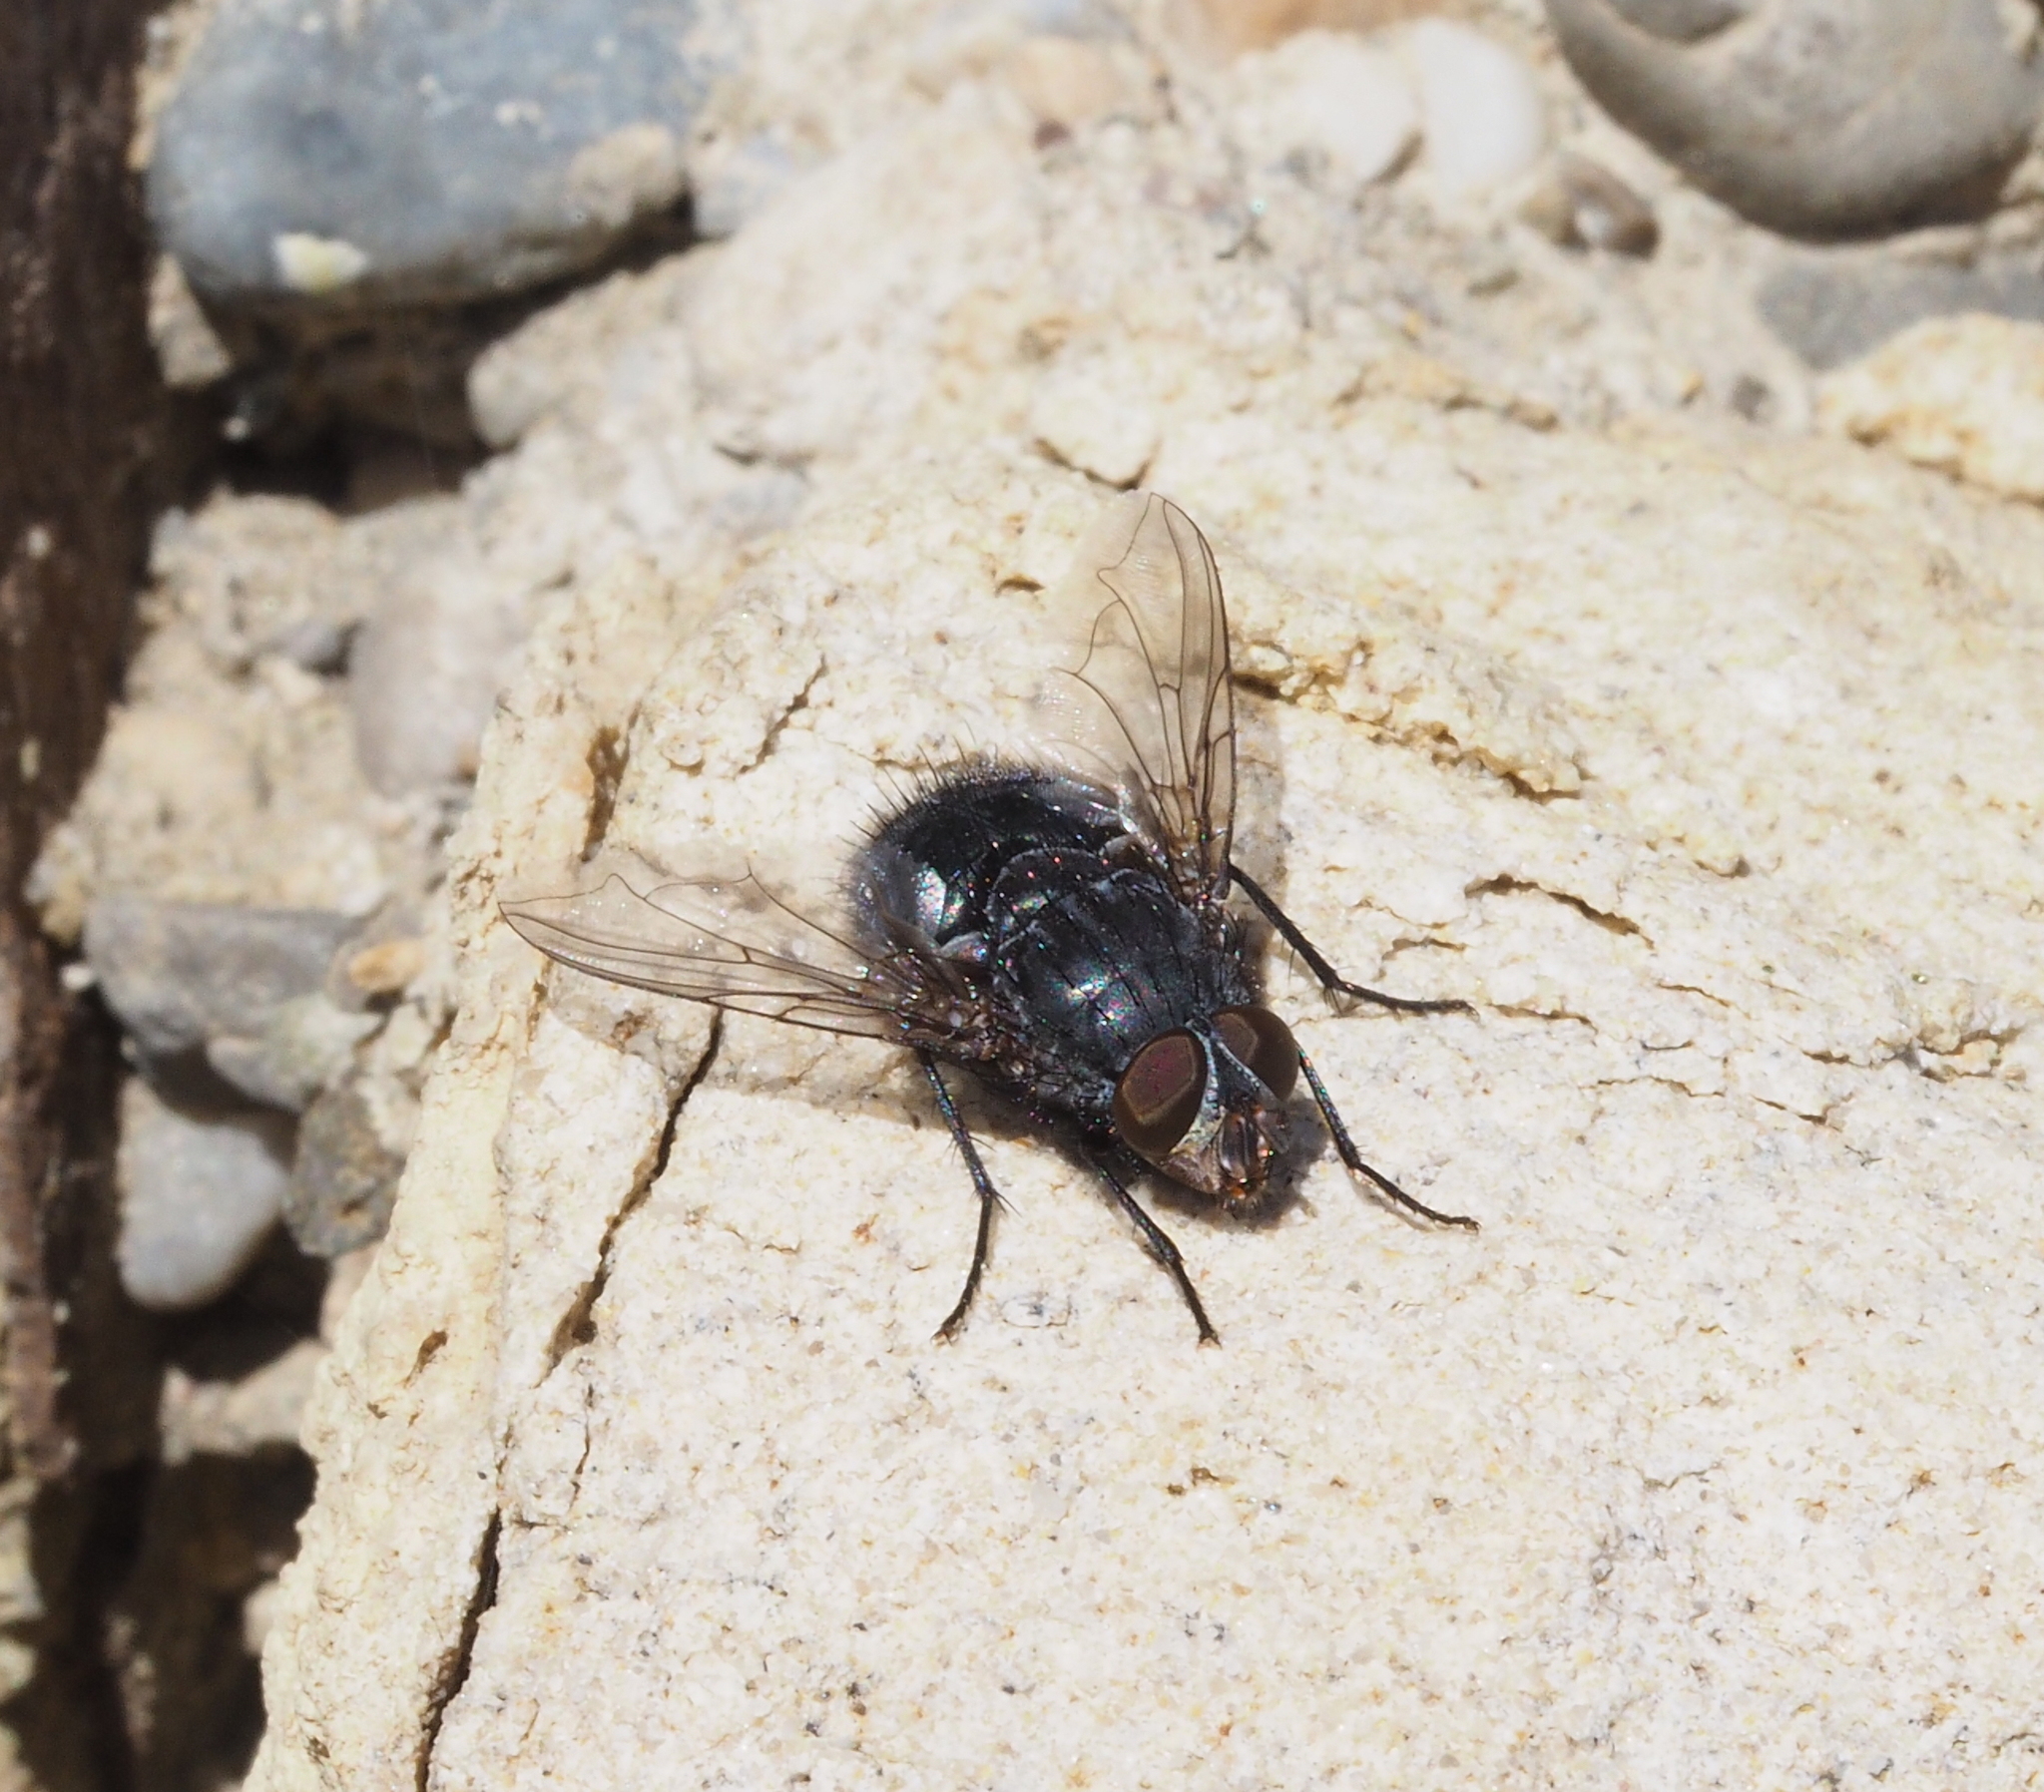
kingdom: Animalia
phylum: Arthropoda
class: Insecta
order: Diptera
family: Calliphoridae
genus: Calliphora
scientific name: Calliphora vicina
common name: Common blow flie
